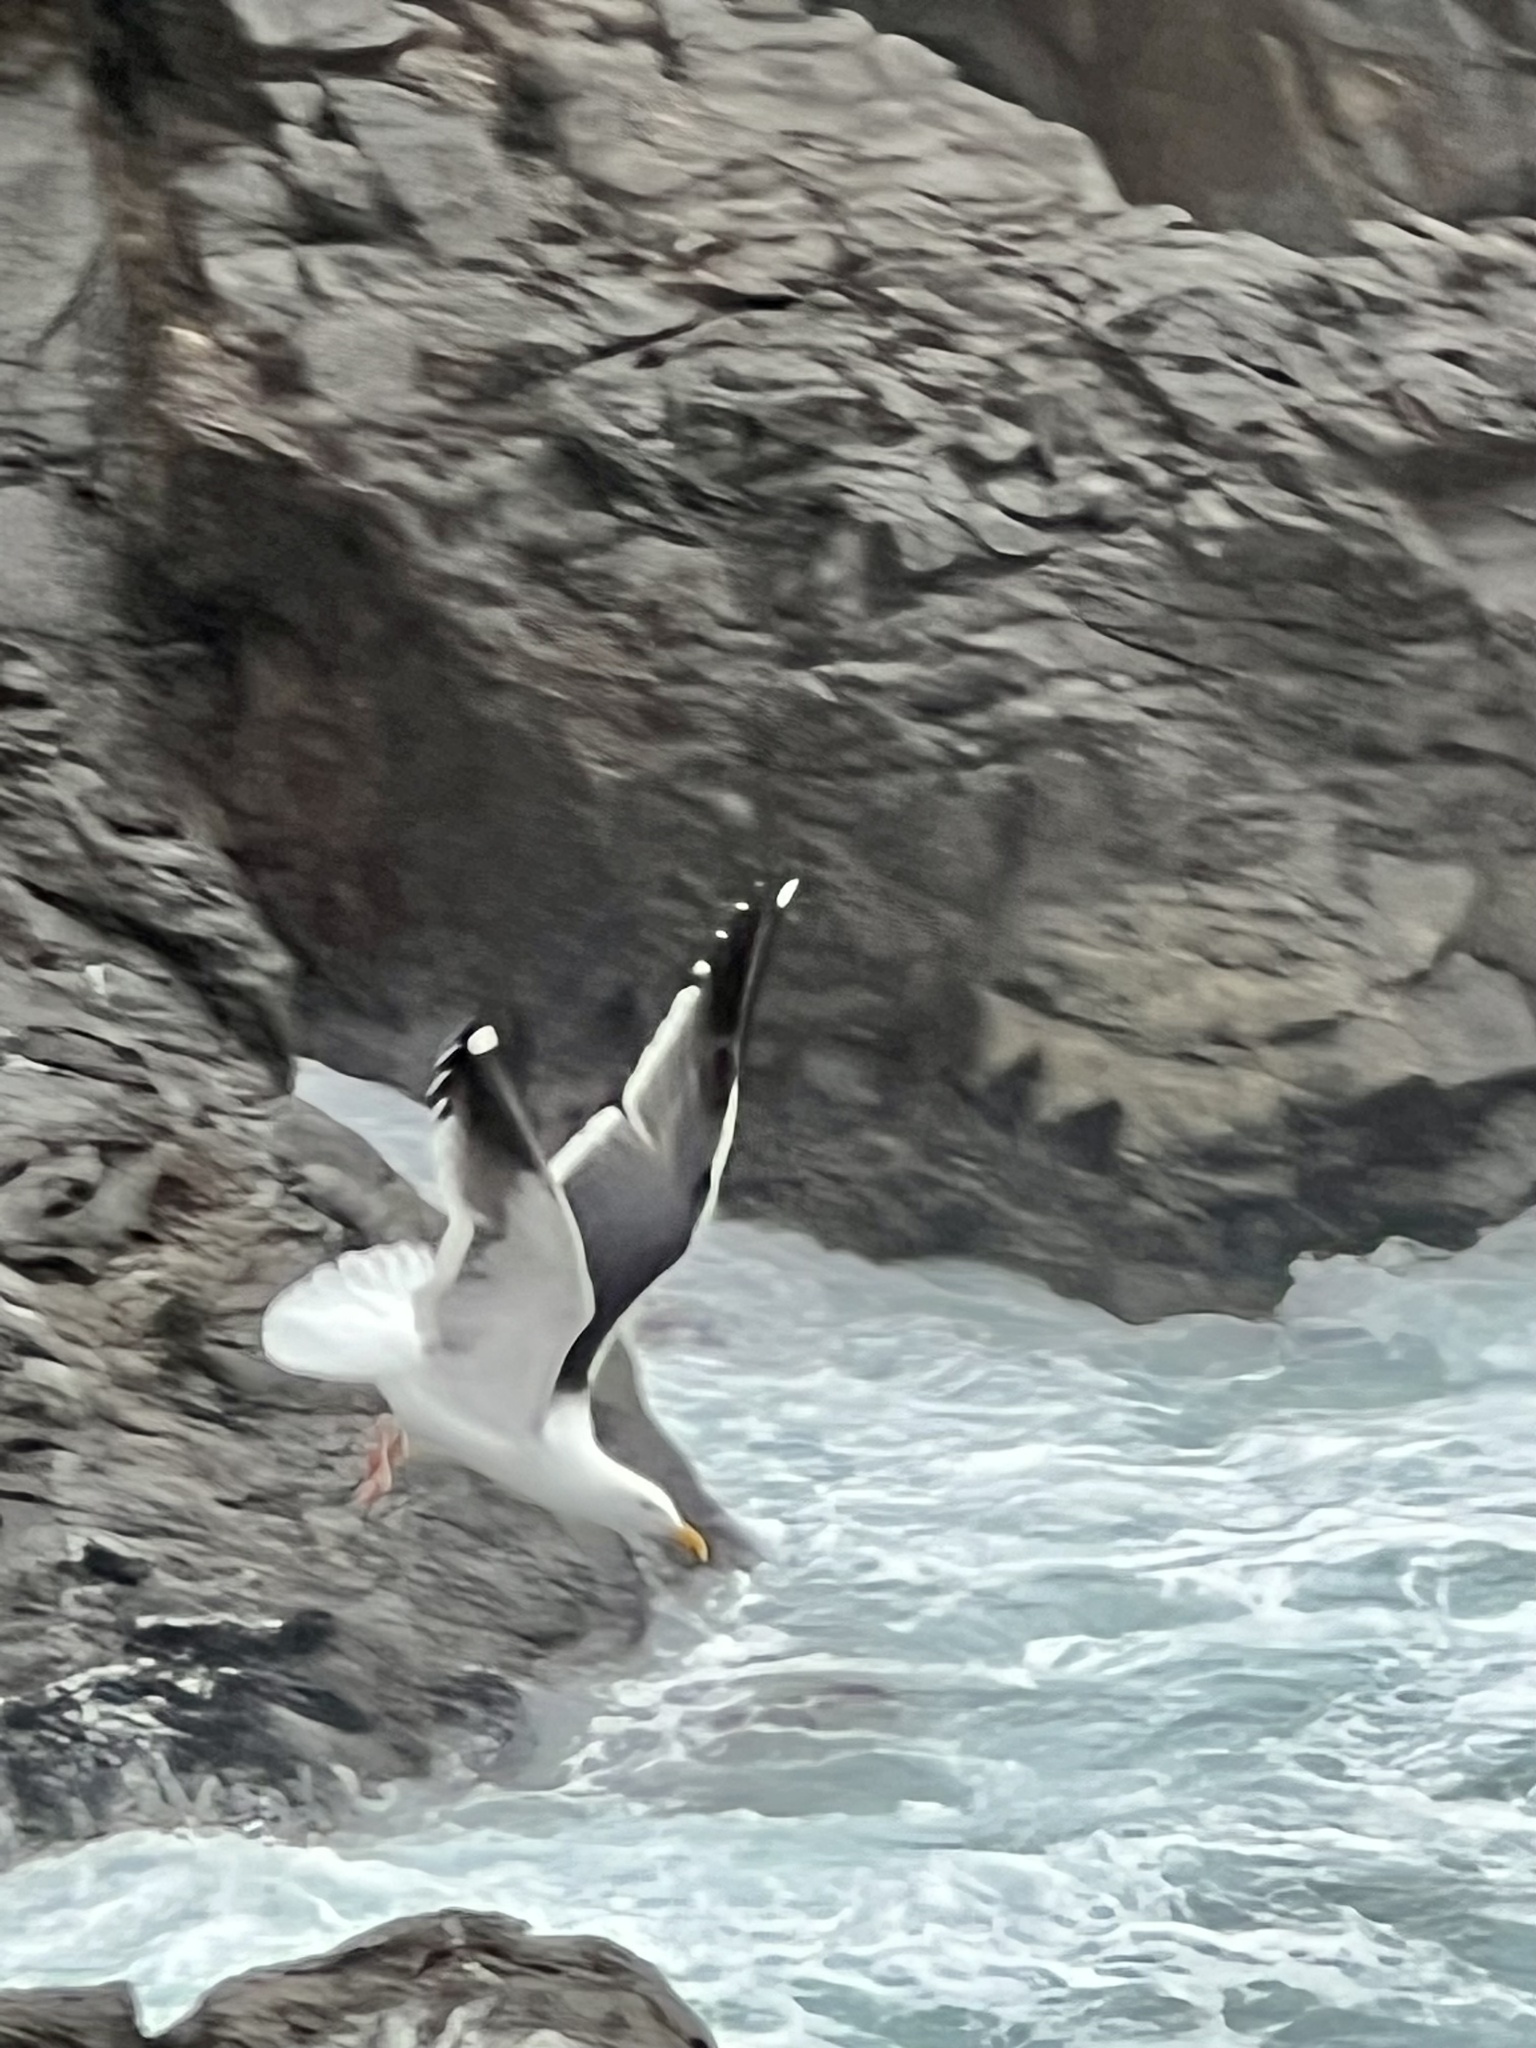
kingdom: Animalia
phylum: Chordata
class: Aves
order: Charadriiformes
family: Laridae
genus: Larus
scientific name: Larus occidentalis
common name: Western gull
